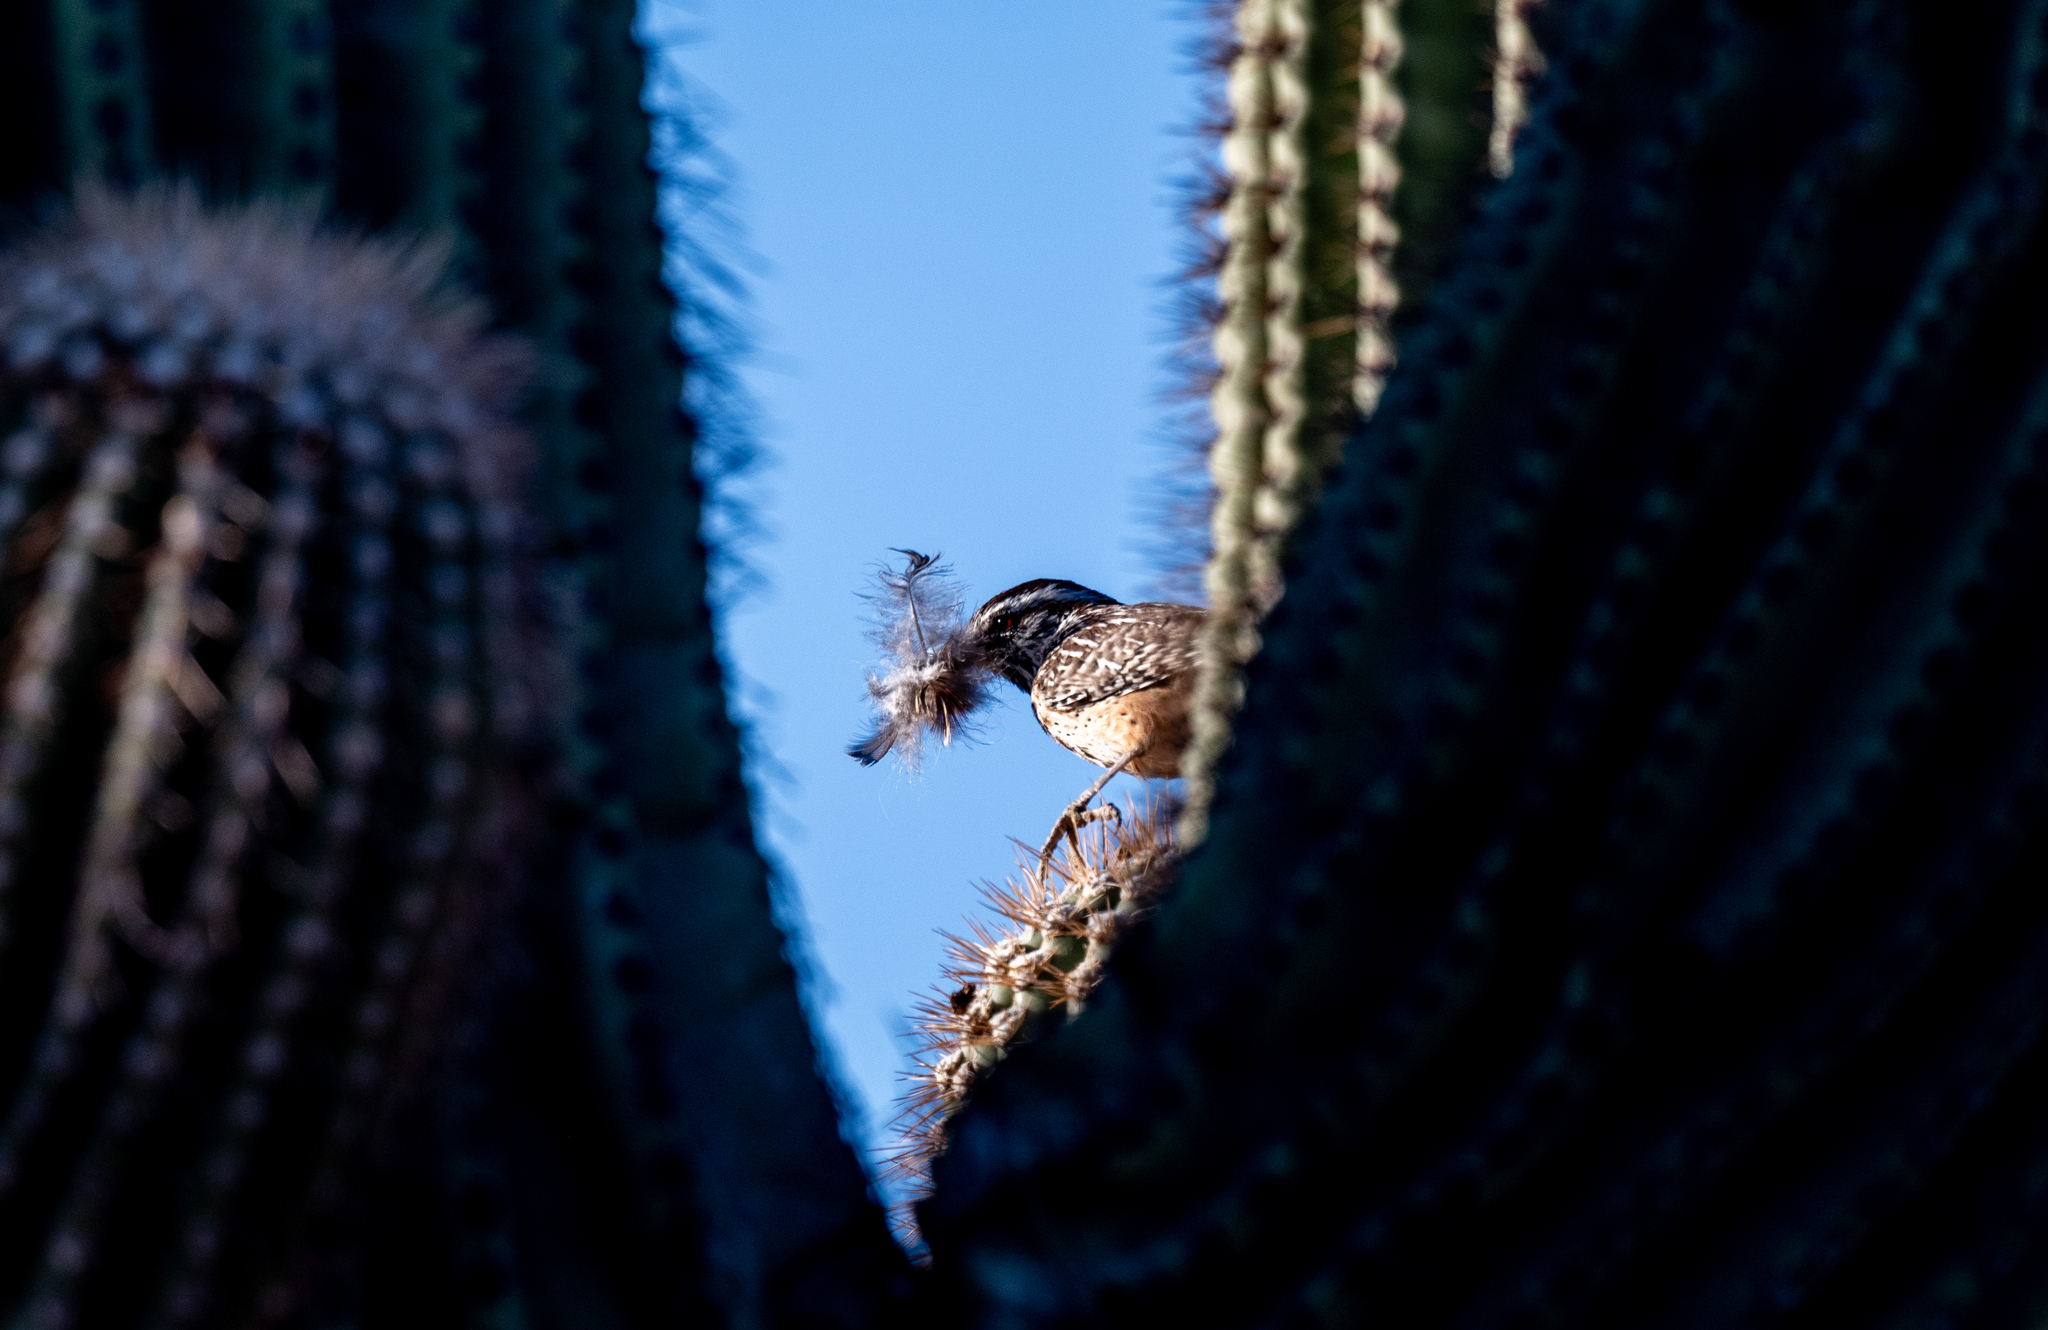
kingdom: Animalia
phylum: Chordata
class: Aves
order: Passeriformes
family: Troglodytidae
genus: Campylorhynchus
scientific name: Campylorhynchus brunneicapillus
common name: Cactus wren
